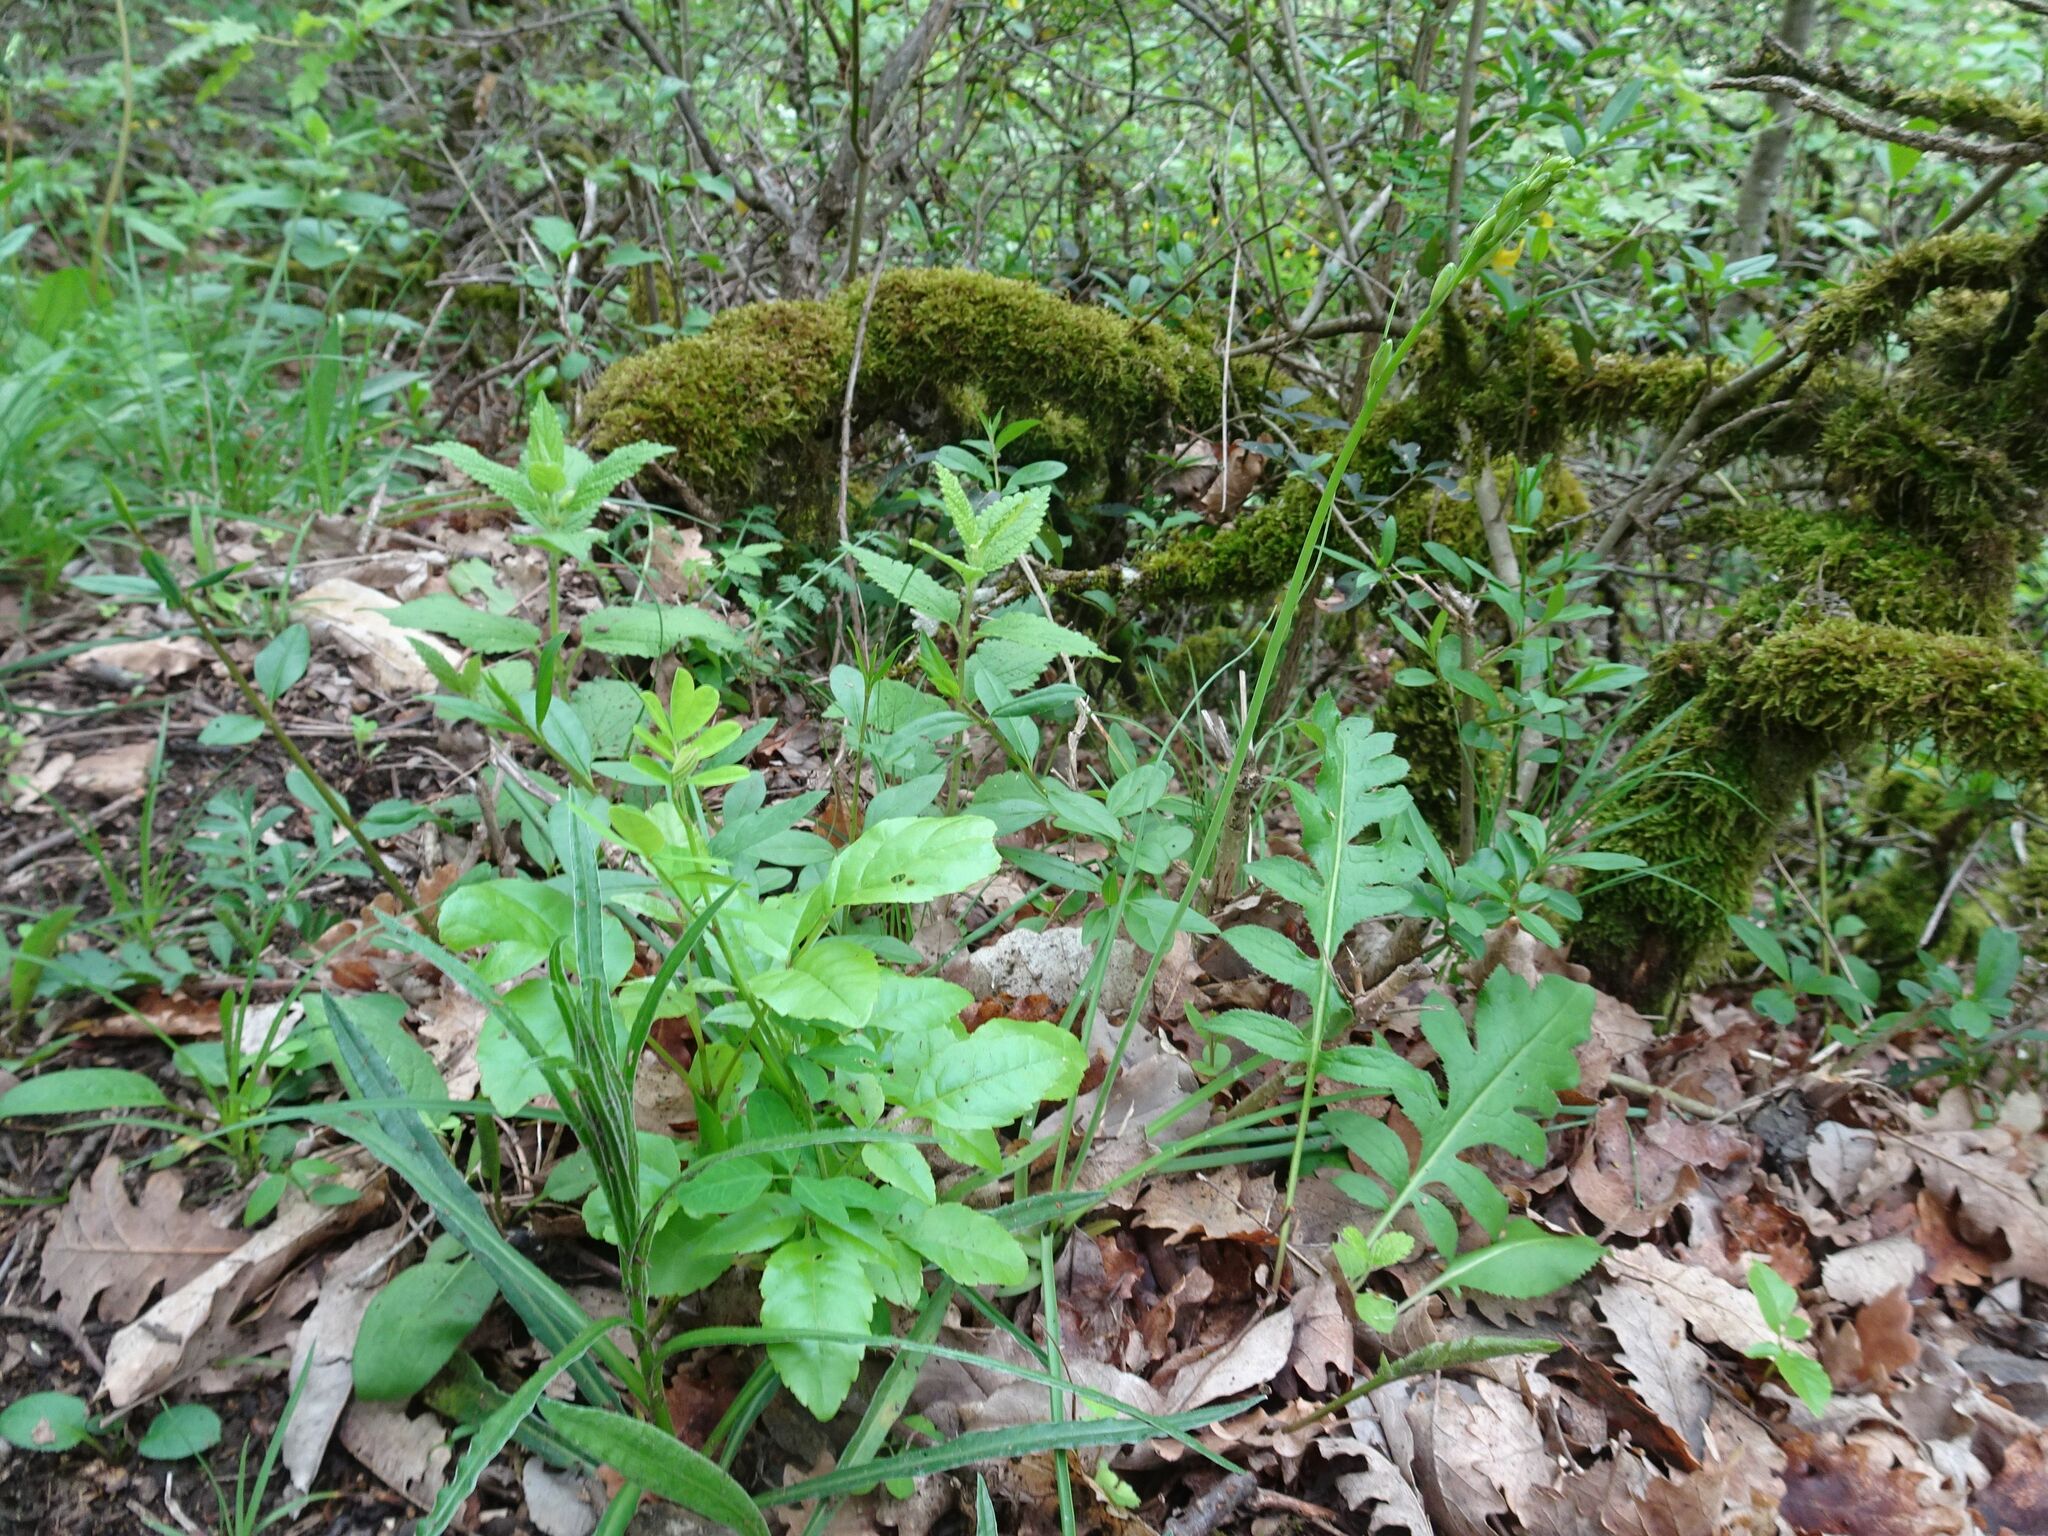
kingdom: Plantae
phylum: Tracheophyta
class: Liliopsida
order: Asparagales
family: Asparagaceae
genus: Anthericum
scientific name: Anthericum liliago
